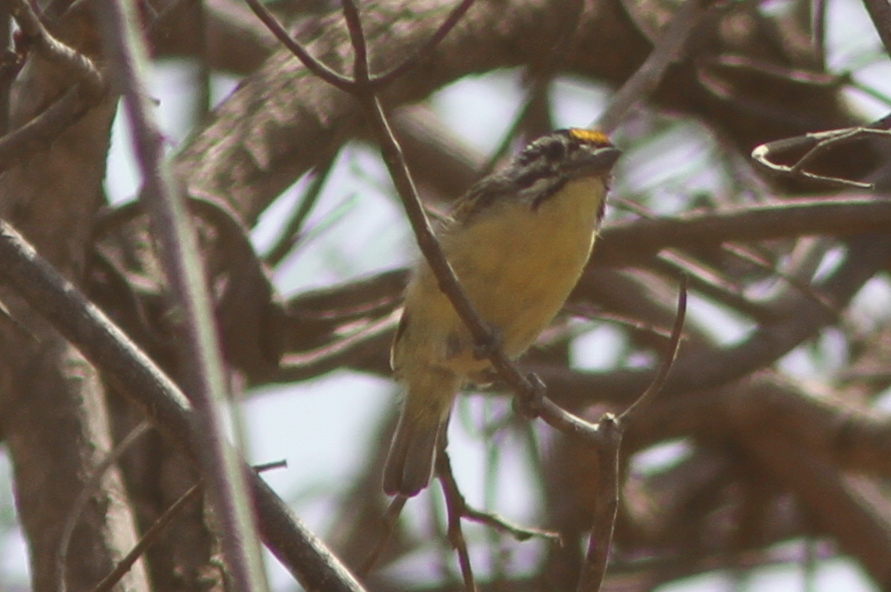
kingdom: Animalia
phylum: Chordata
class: Aves
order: Piciformes
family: Lybiidae
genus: Pogoniulus
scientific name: Pogoniulus chrysoconus
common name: Yellow-fronted tinkerbird
